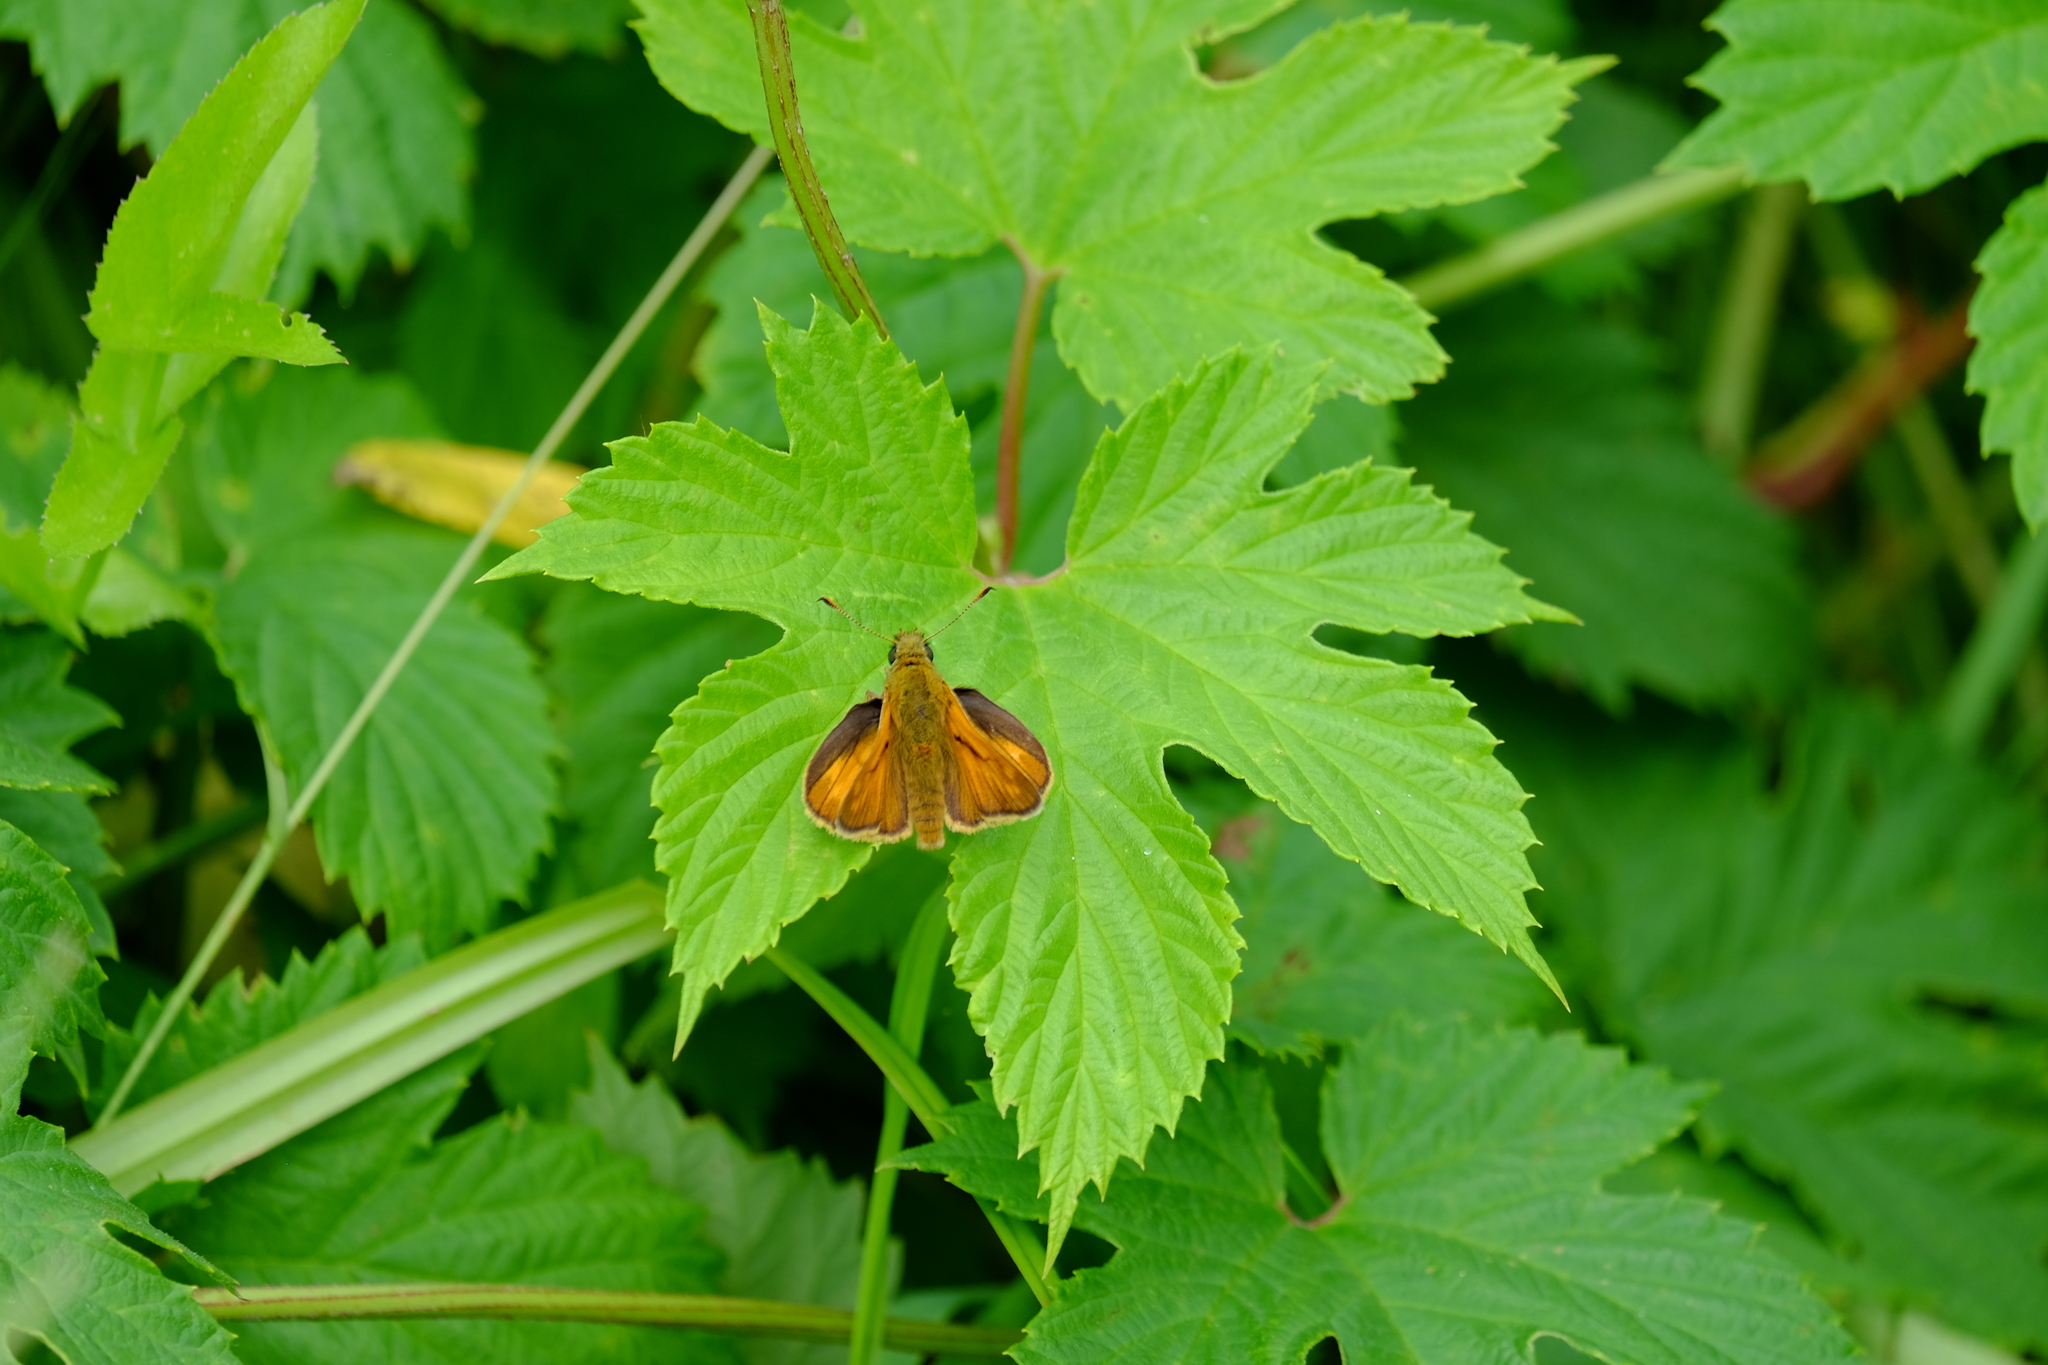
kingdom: Animalia
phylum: Arthropoda
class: Insecta
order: Lepidoptera
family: Hesperiidae
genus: Ochlodes
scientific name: Ochlodes venata
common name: Large skipper
